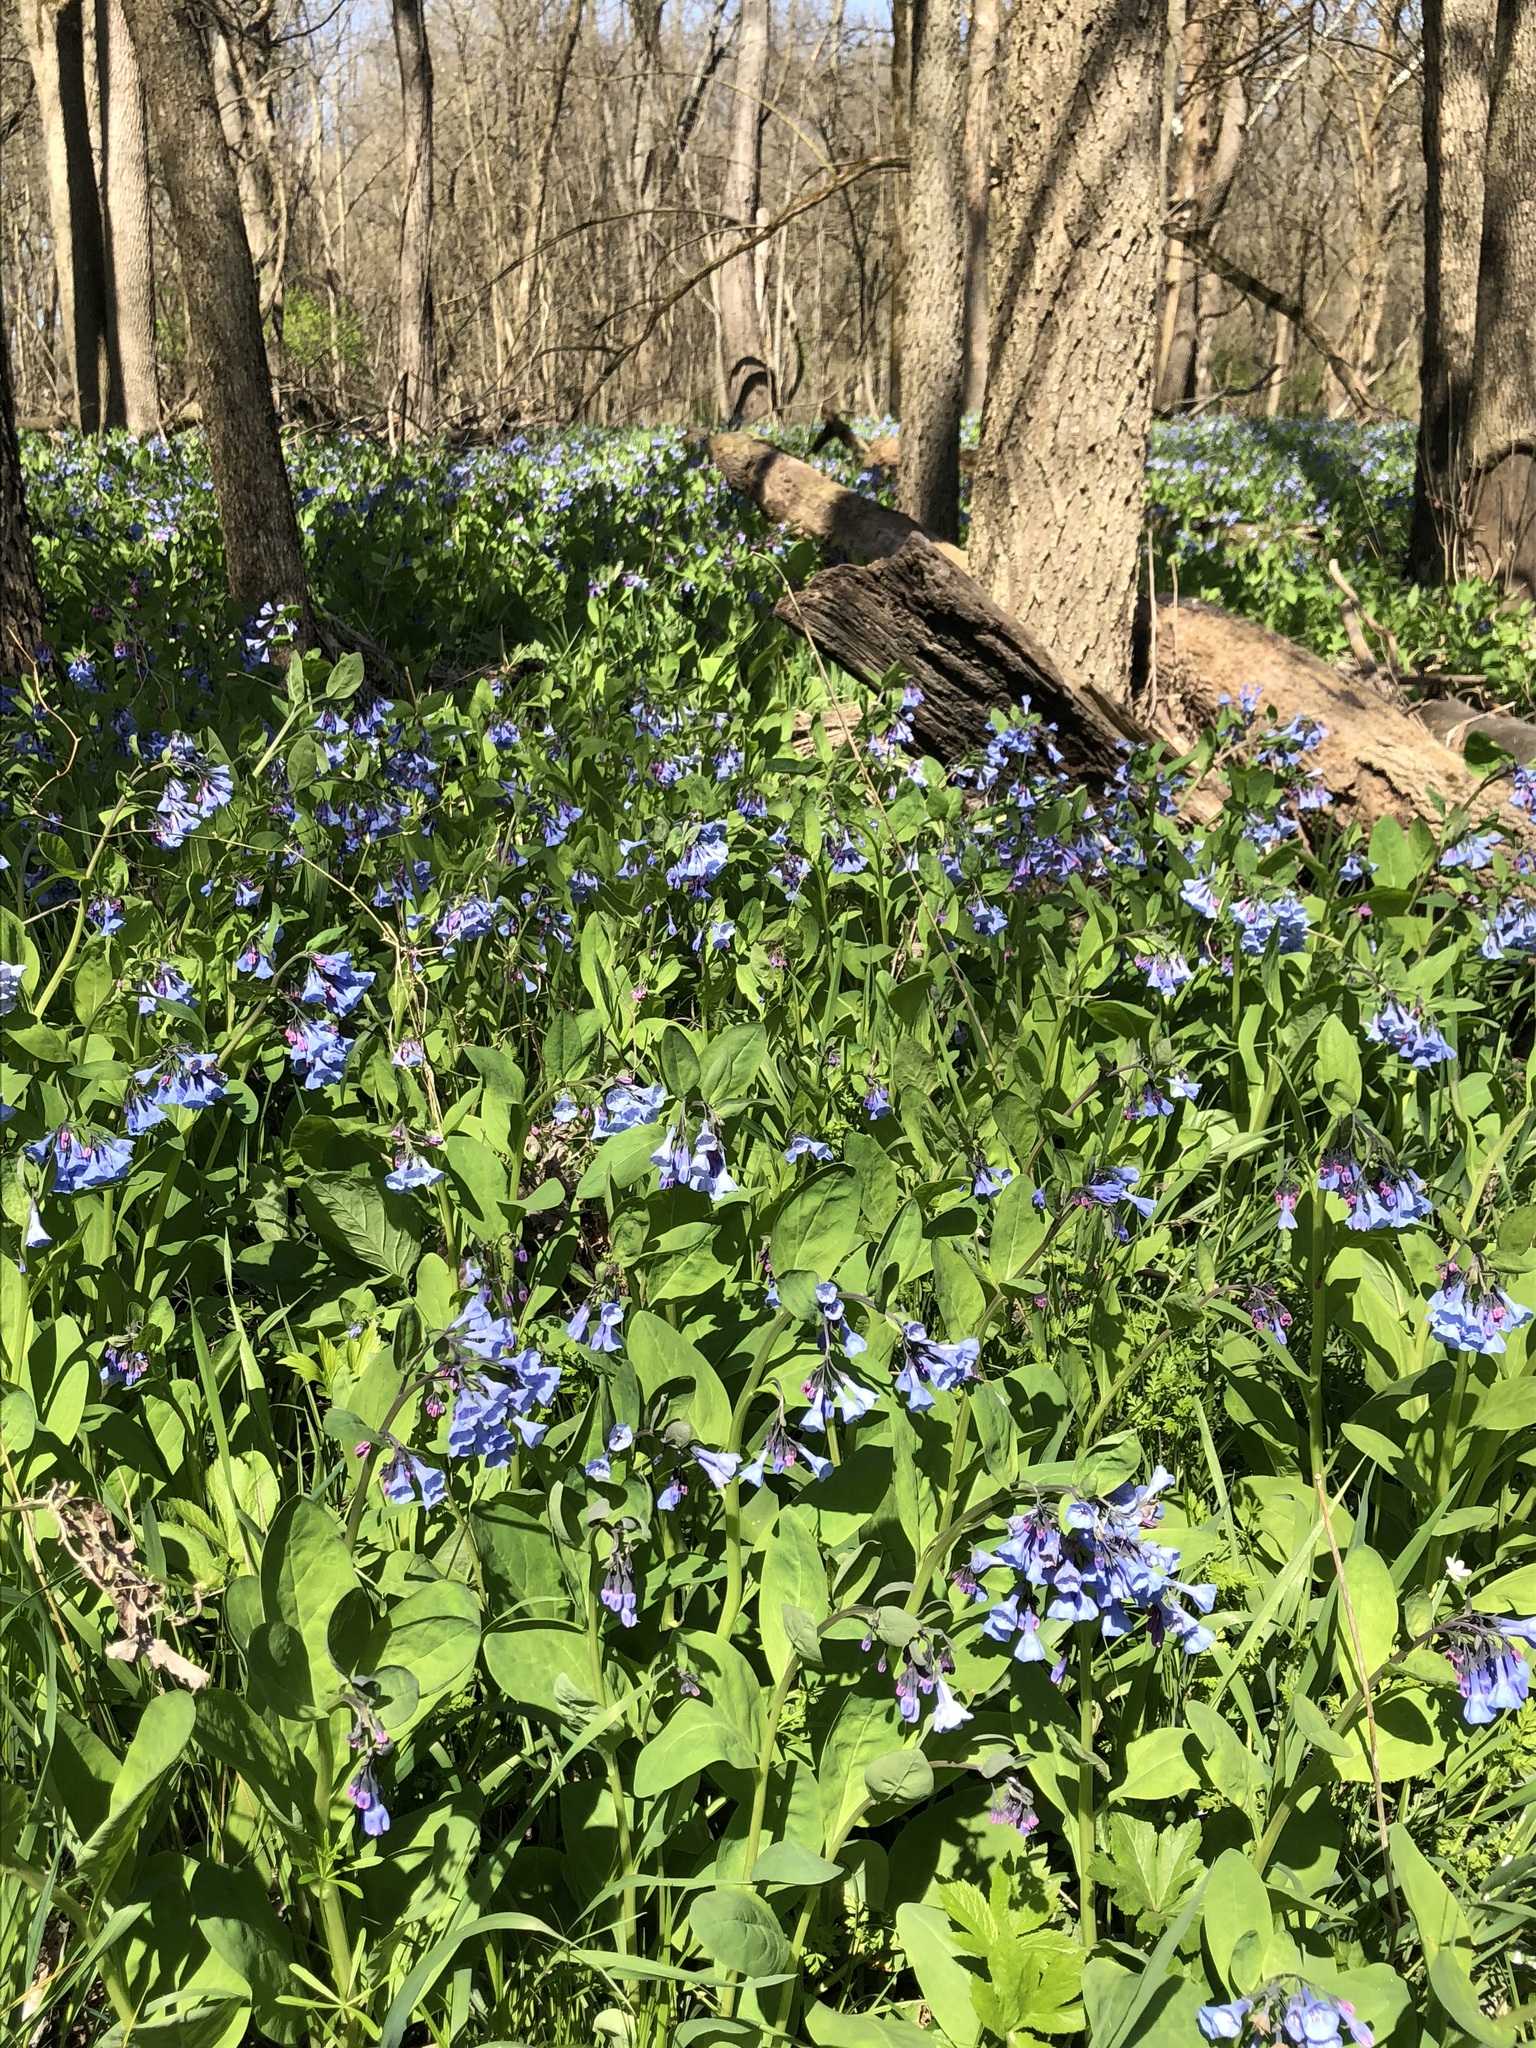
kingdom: Plantae
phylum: Tracheophyta
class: Magnoliopsida
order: Boraginales
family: Boraginaceae
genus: Mertensia
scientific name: Mertensia virginica
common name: Virginia bluebells
